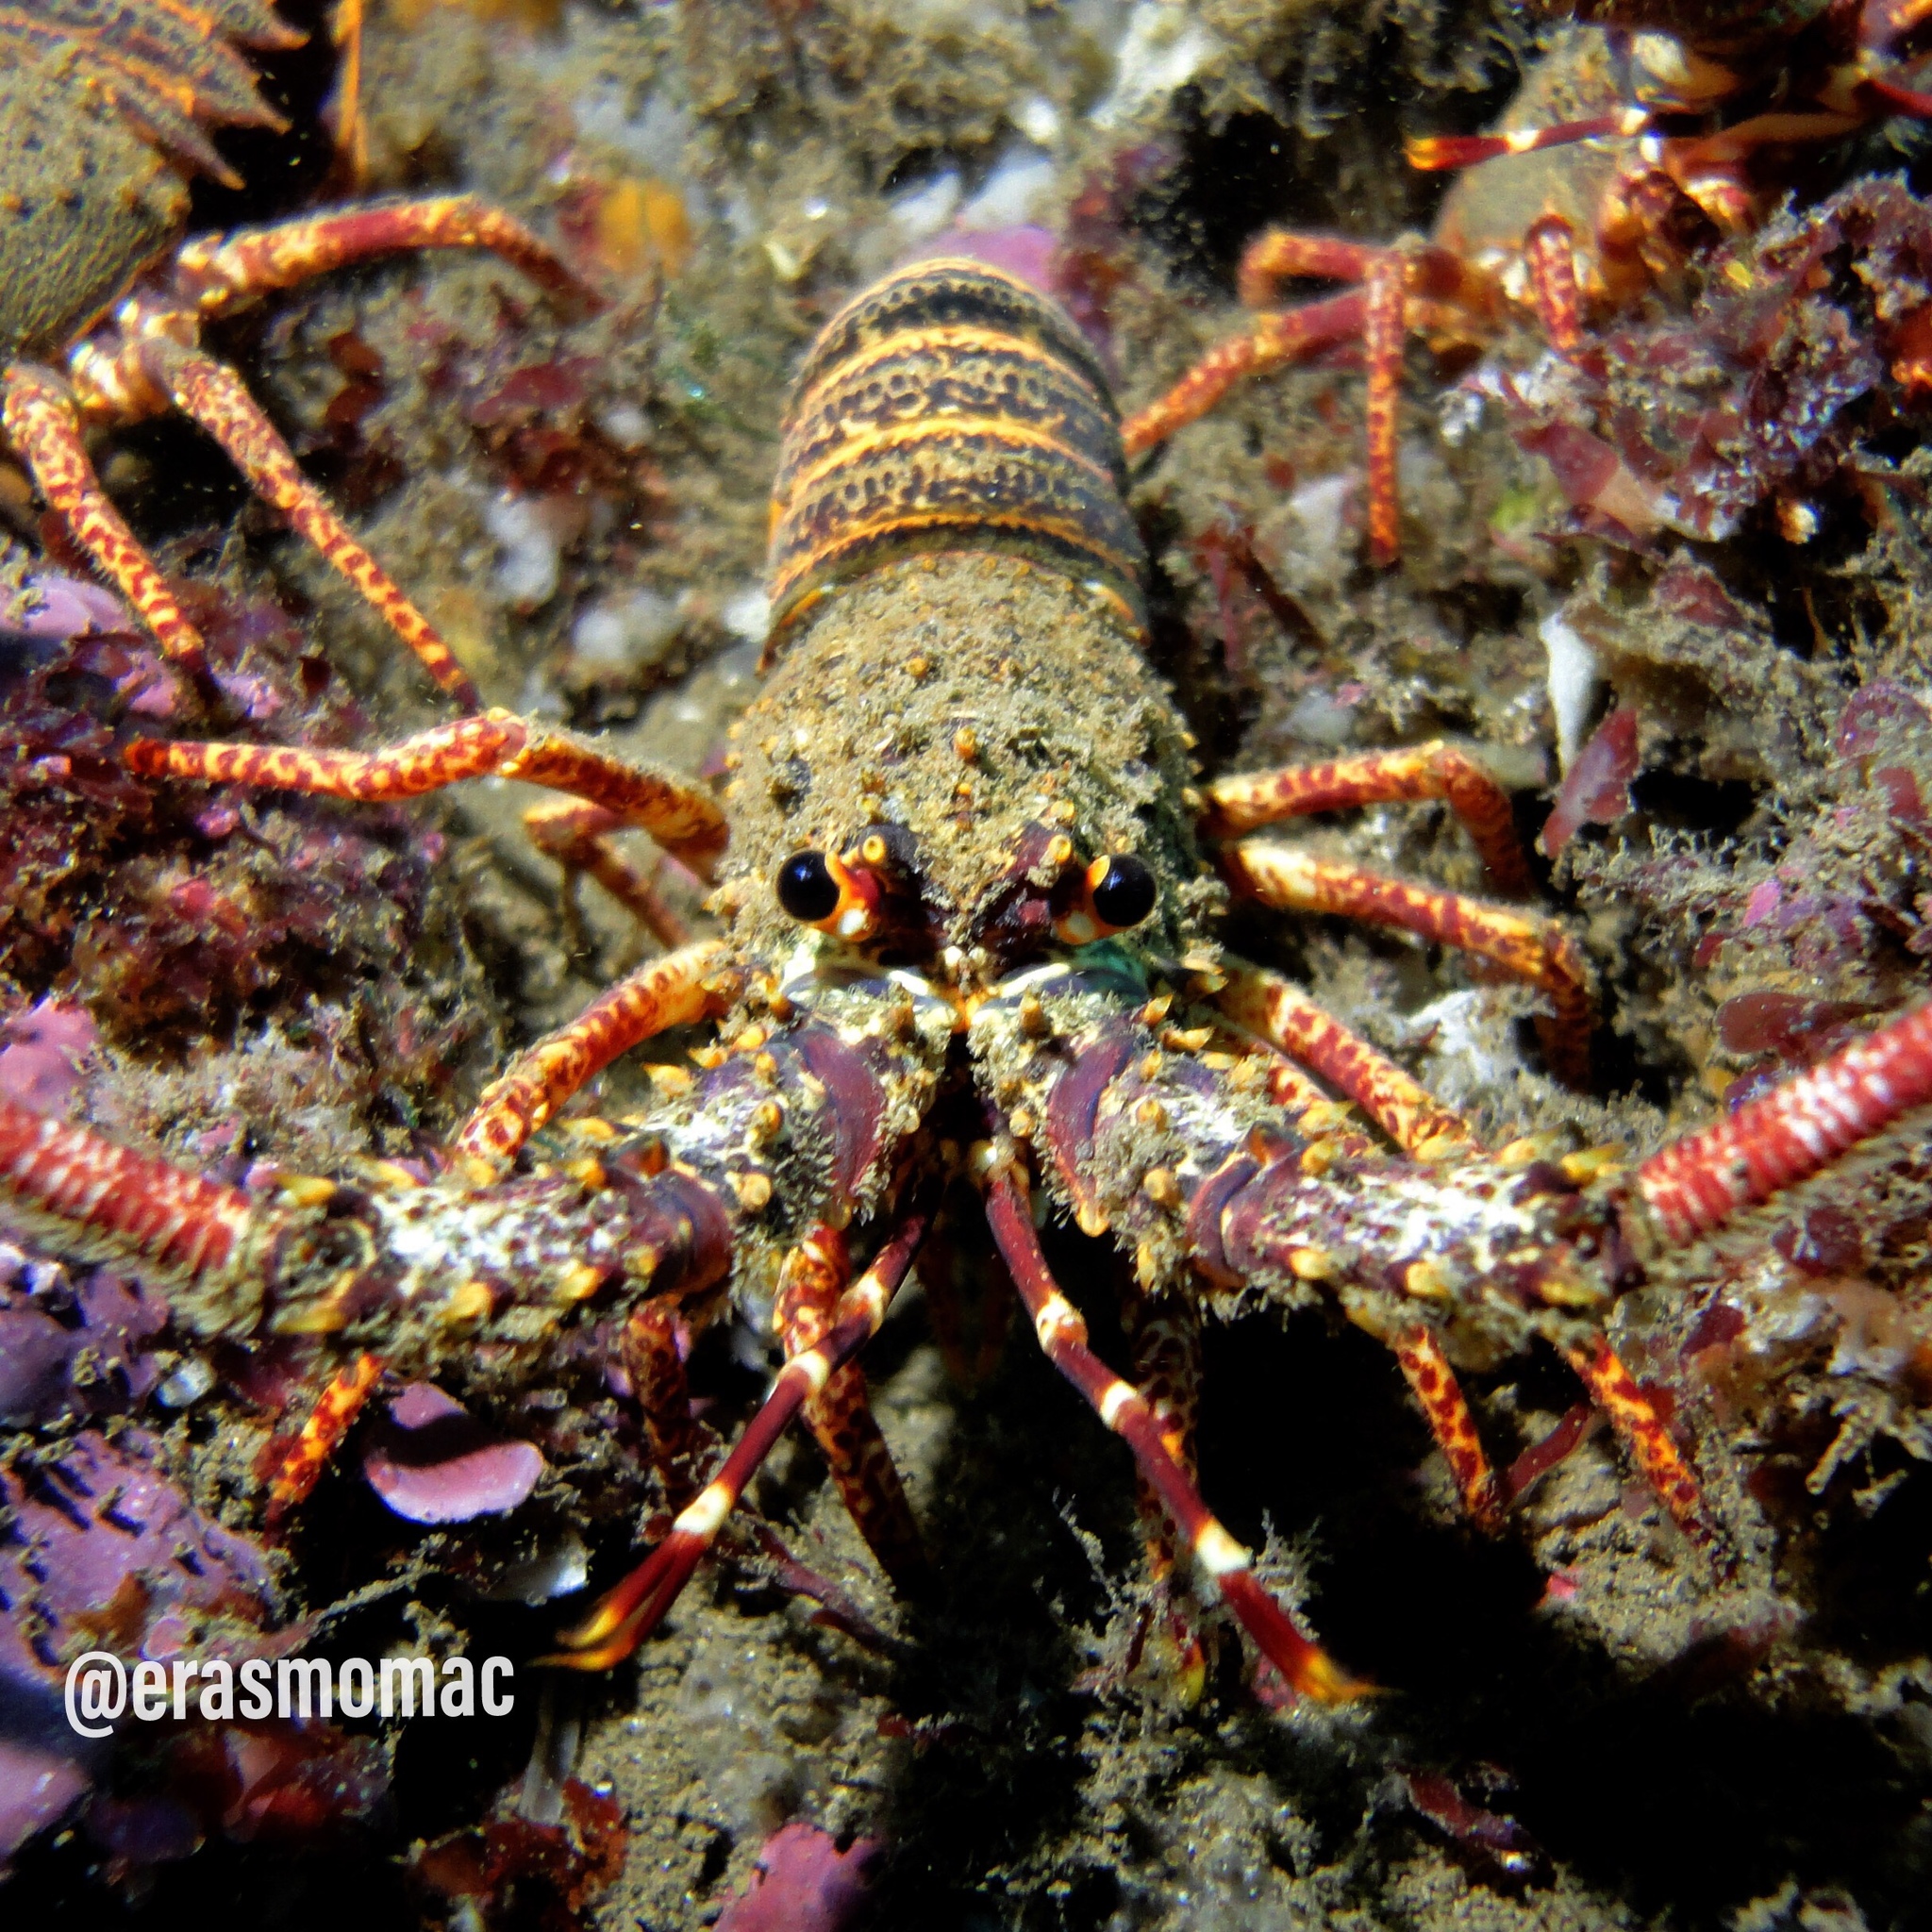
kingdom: Animalia
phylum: Arthropoda
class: Malacostraca
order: Decapoda
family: Palinuridae
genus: Jasus
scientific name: Jasus frontalis
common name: Juan fernandez rock lobster
